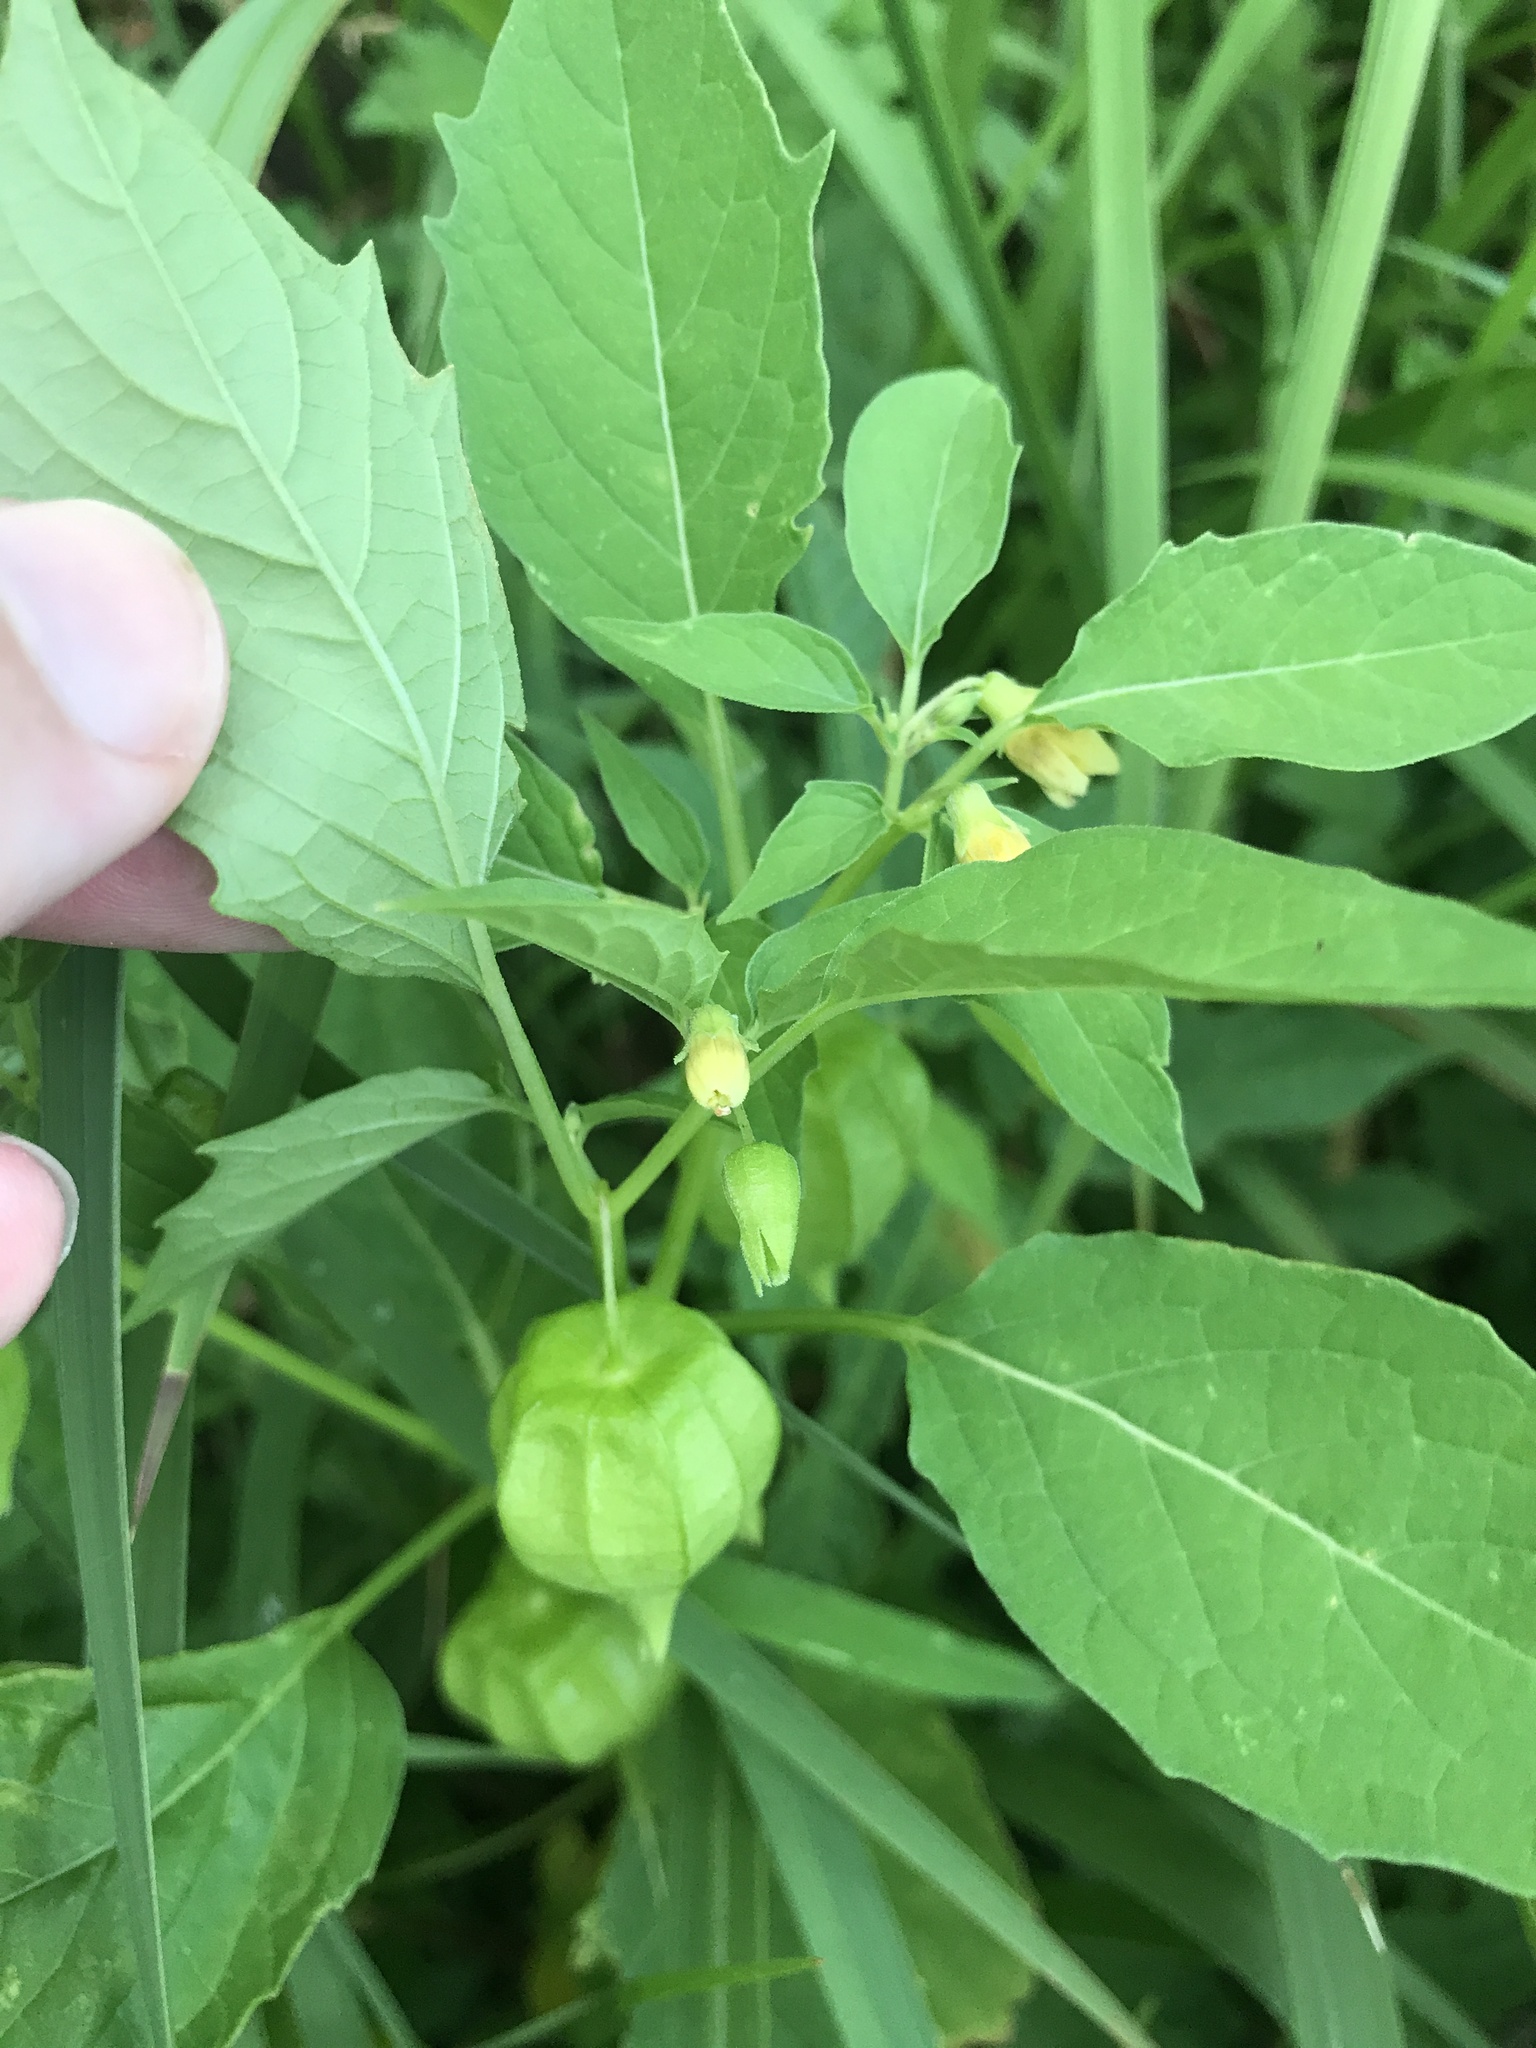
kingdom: Plantae
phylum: Tracheophyta
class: Magnoliopsida
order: Solanales
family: Solanaceae
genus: Physalis
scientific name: Physalis angulata
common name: Angular winter-cherry
